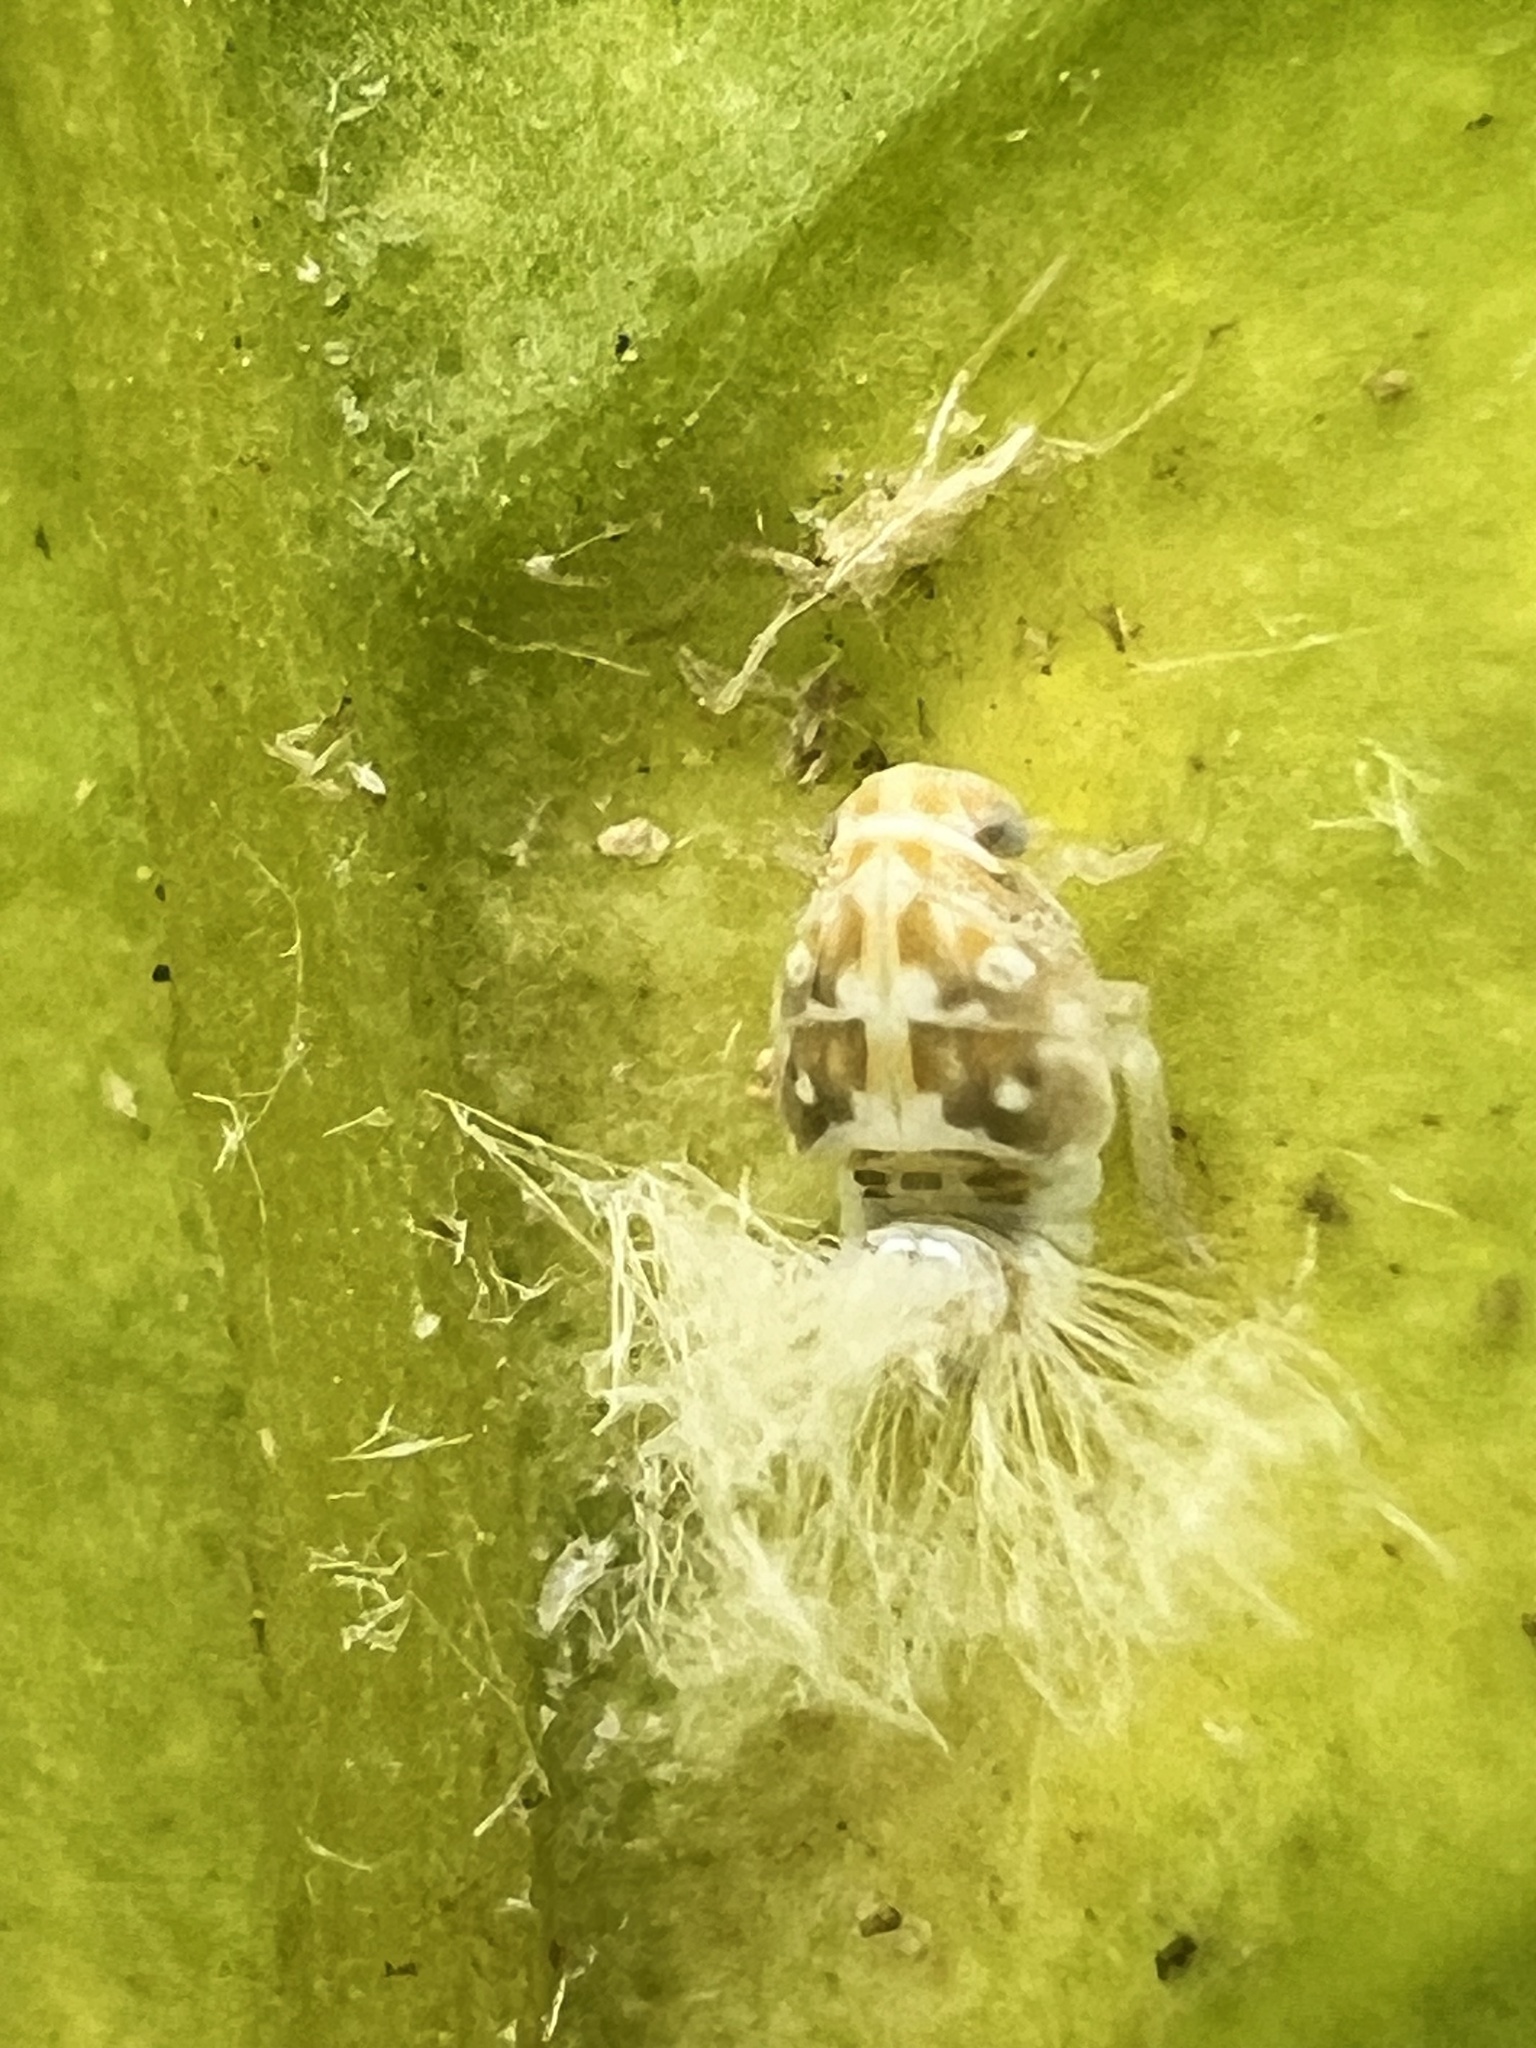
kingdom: Animalia
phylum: Arthropoda
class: Insecta
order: Hemiptera
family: Ricaniidae
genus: Scolypopa
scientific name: Scolypopa australis
